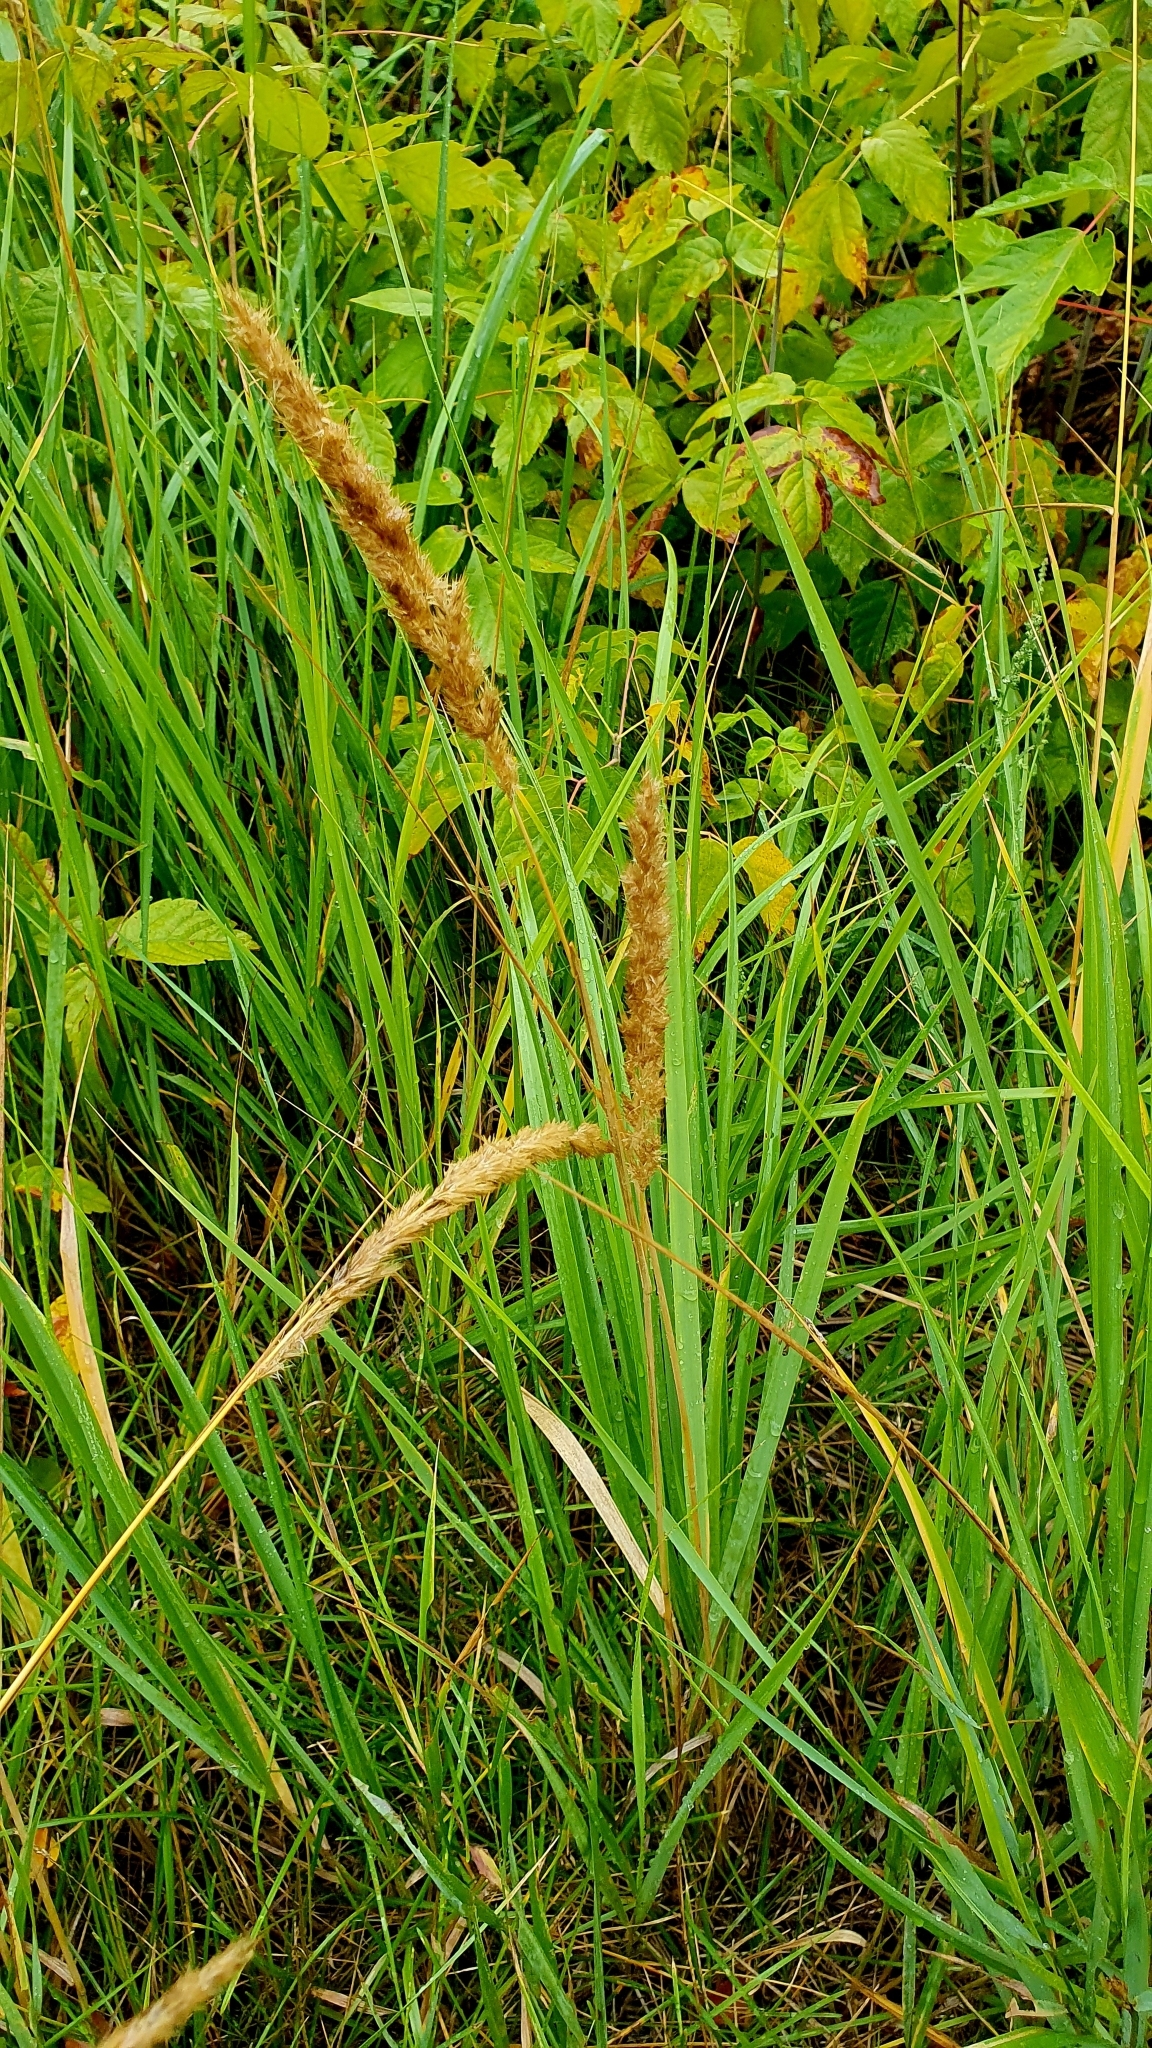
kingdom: Plantae
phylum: Tracheophyta
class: Liliopsida
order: Poales
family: Poaceae
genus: Calamagrostis
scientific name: Calamagrostis epigejos
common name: Wood small-reed
